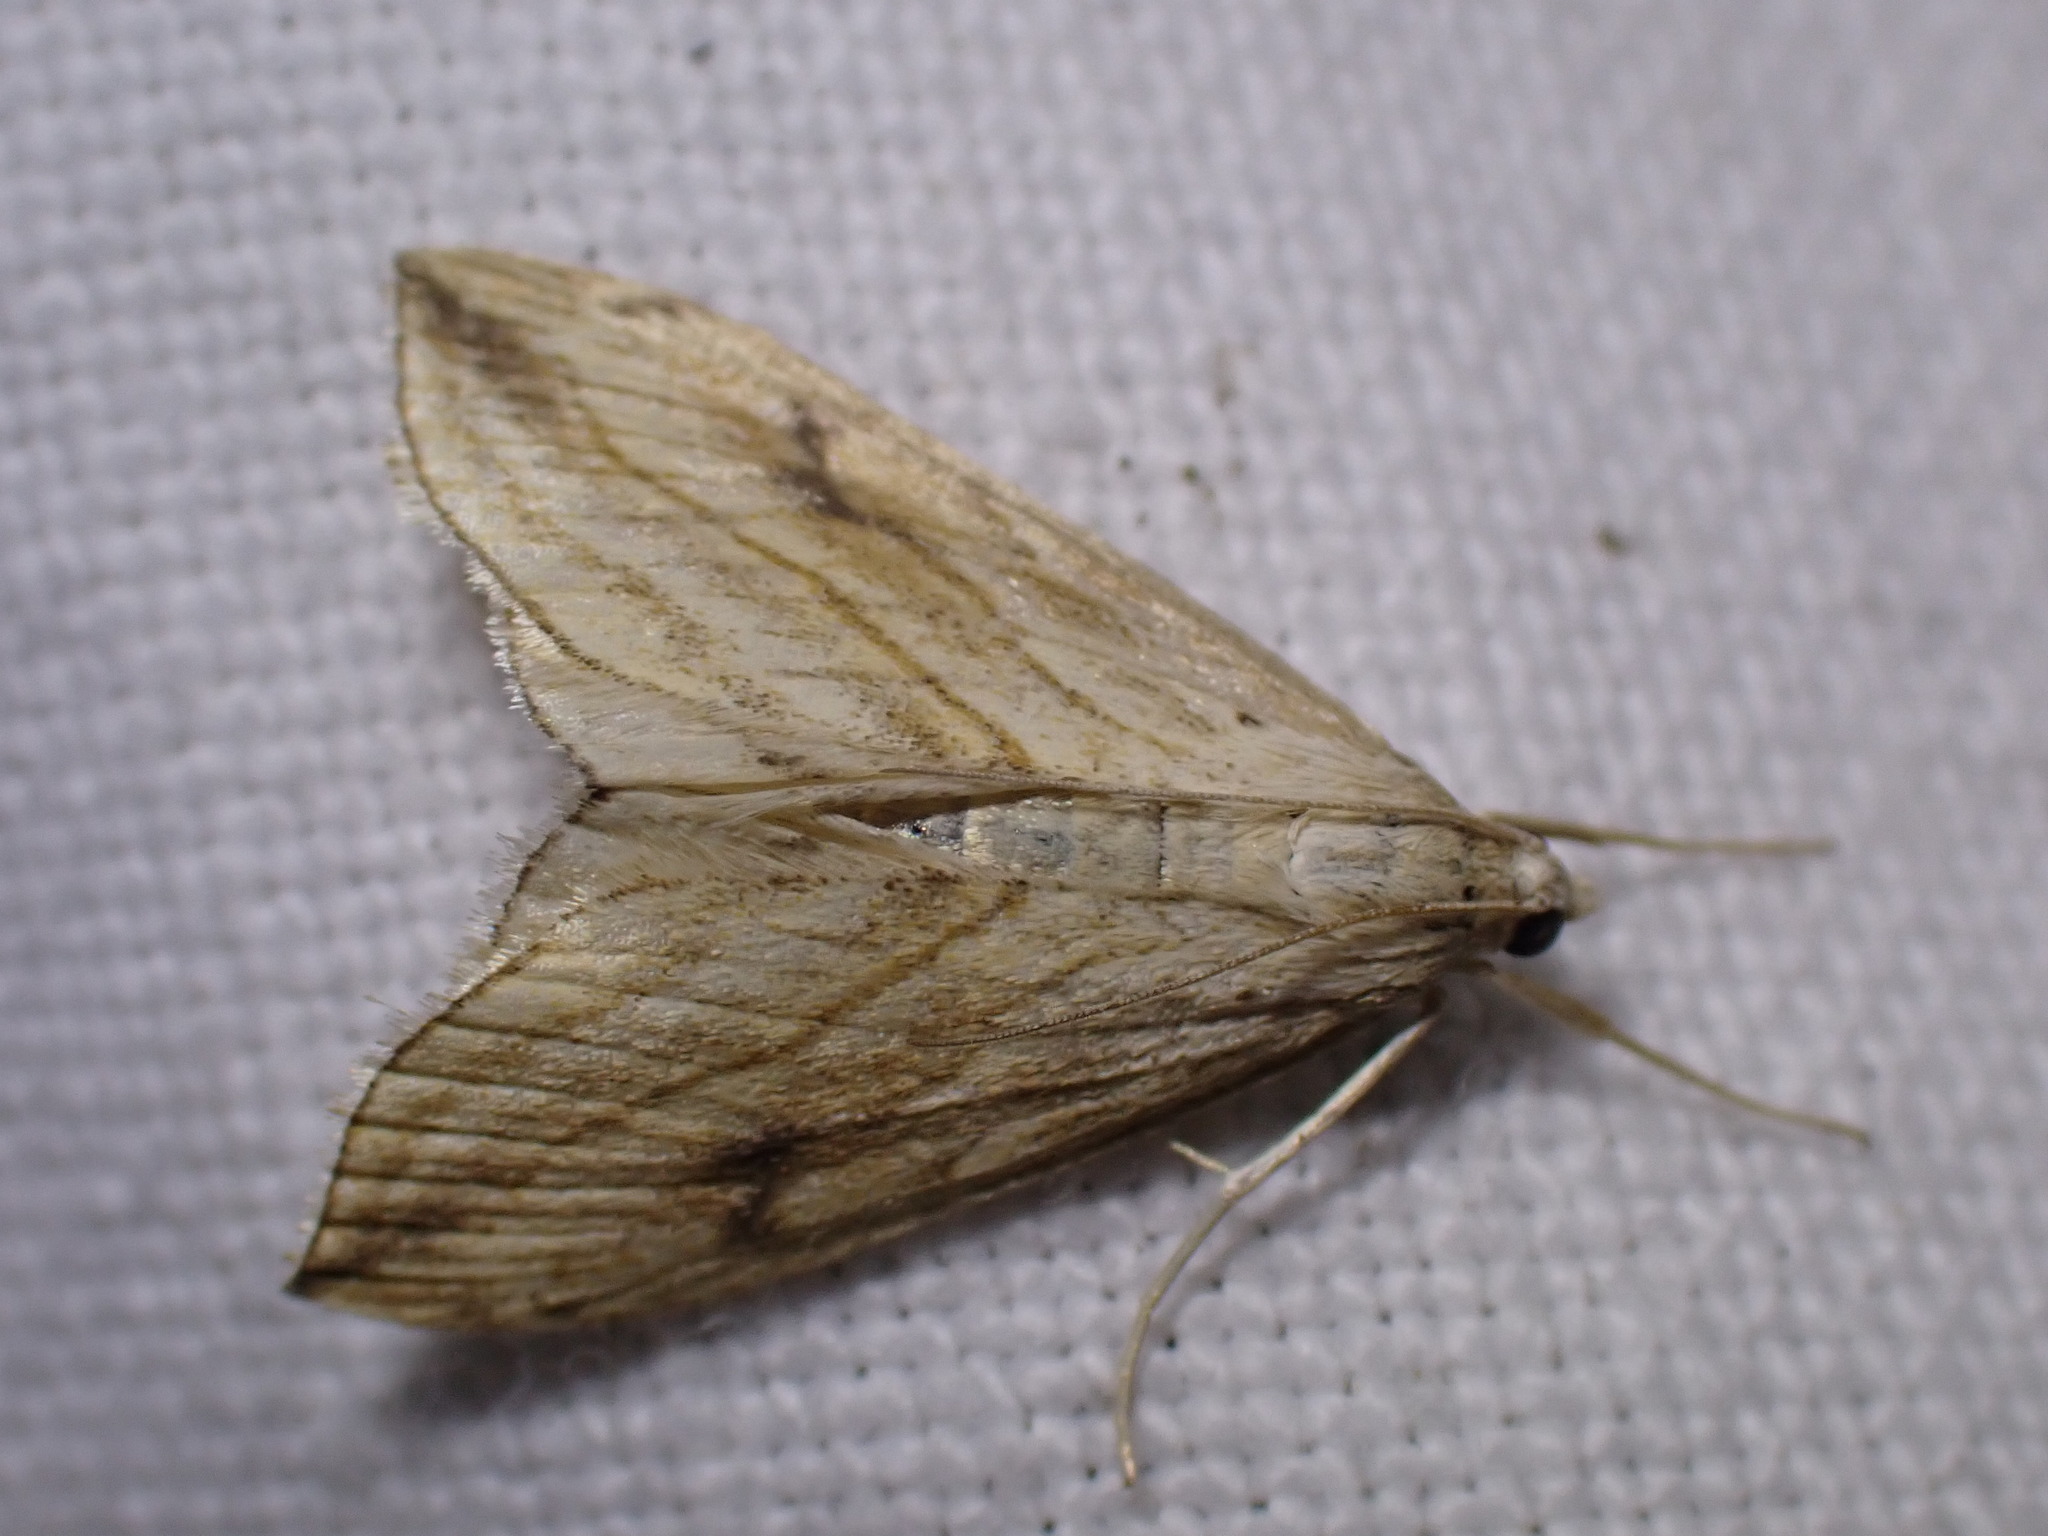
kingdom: Animalia
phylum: Arthropoda
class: Insecta
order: Lepidoptera
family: Crambidae
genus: Evergestis
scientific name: Evergestis forficalis
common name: Garden pebble
